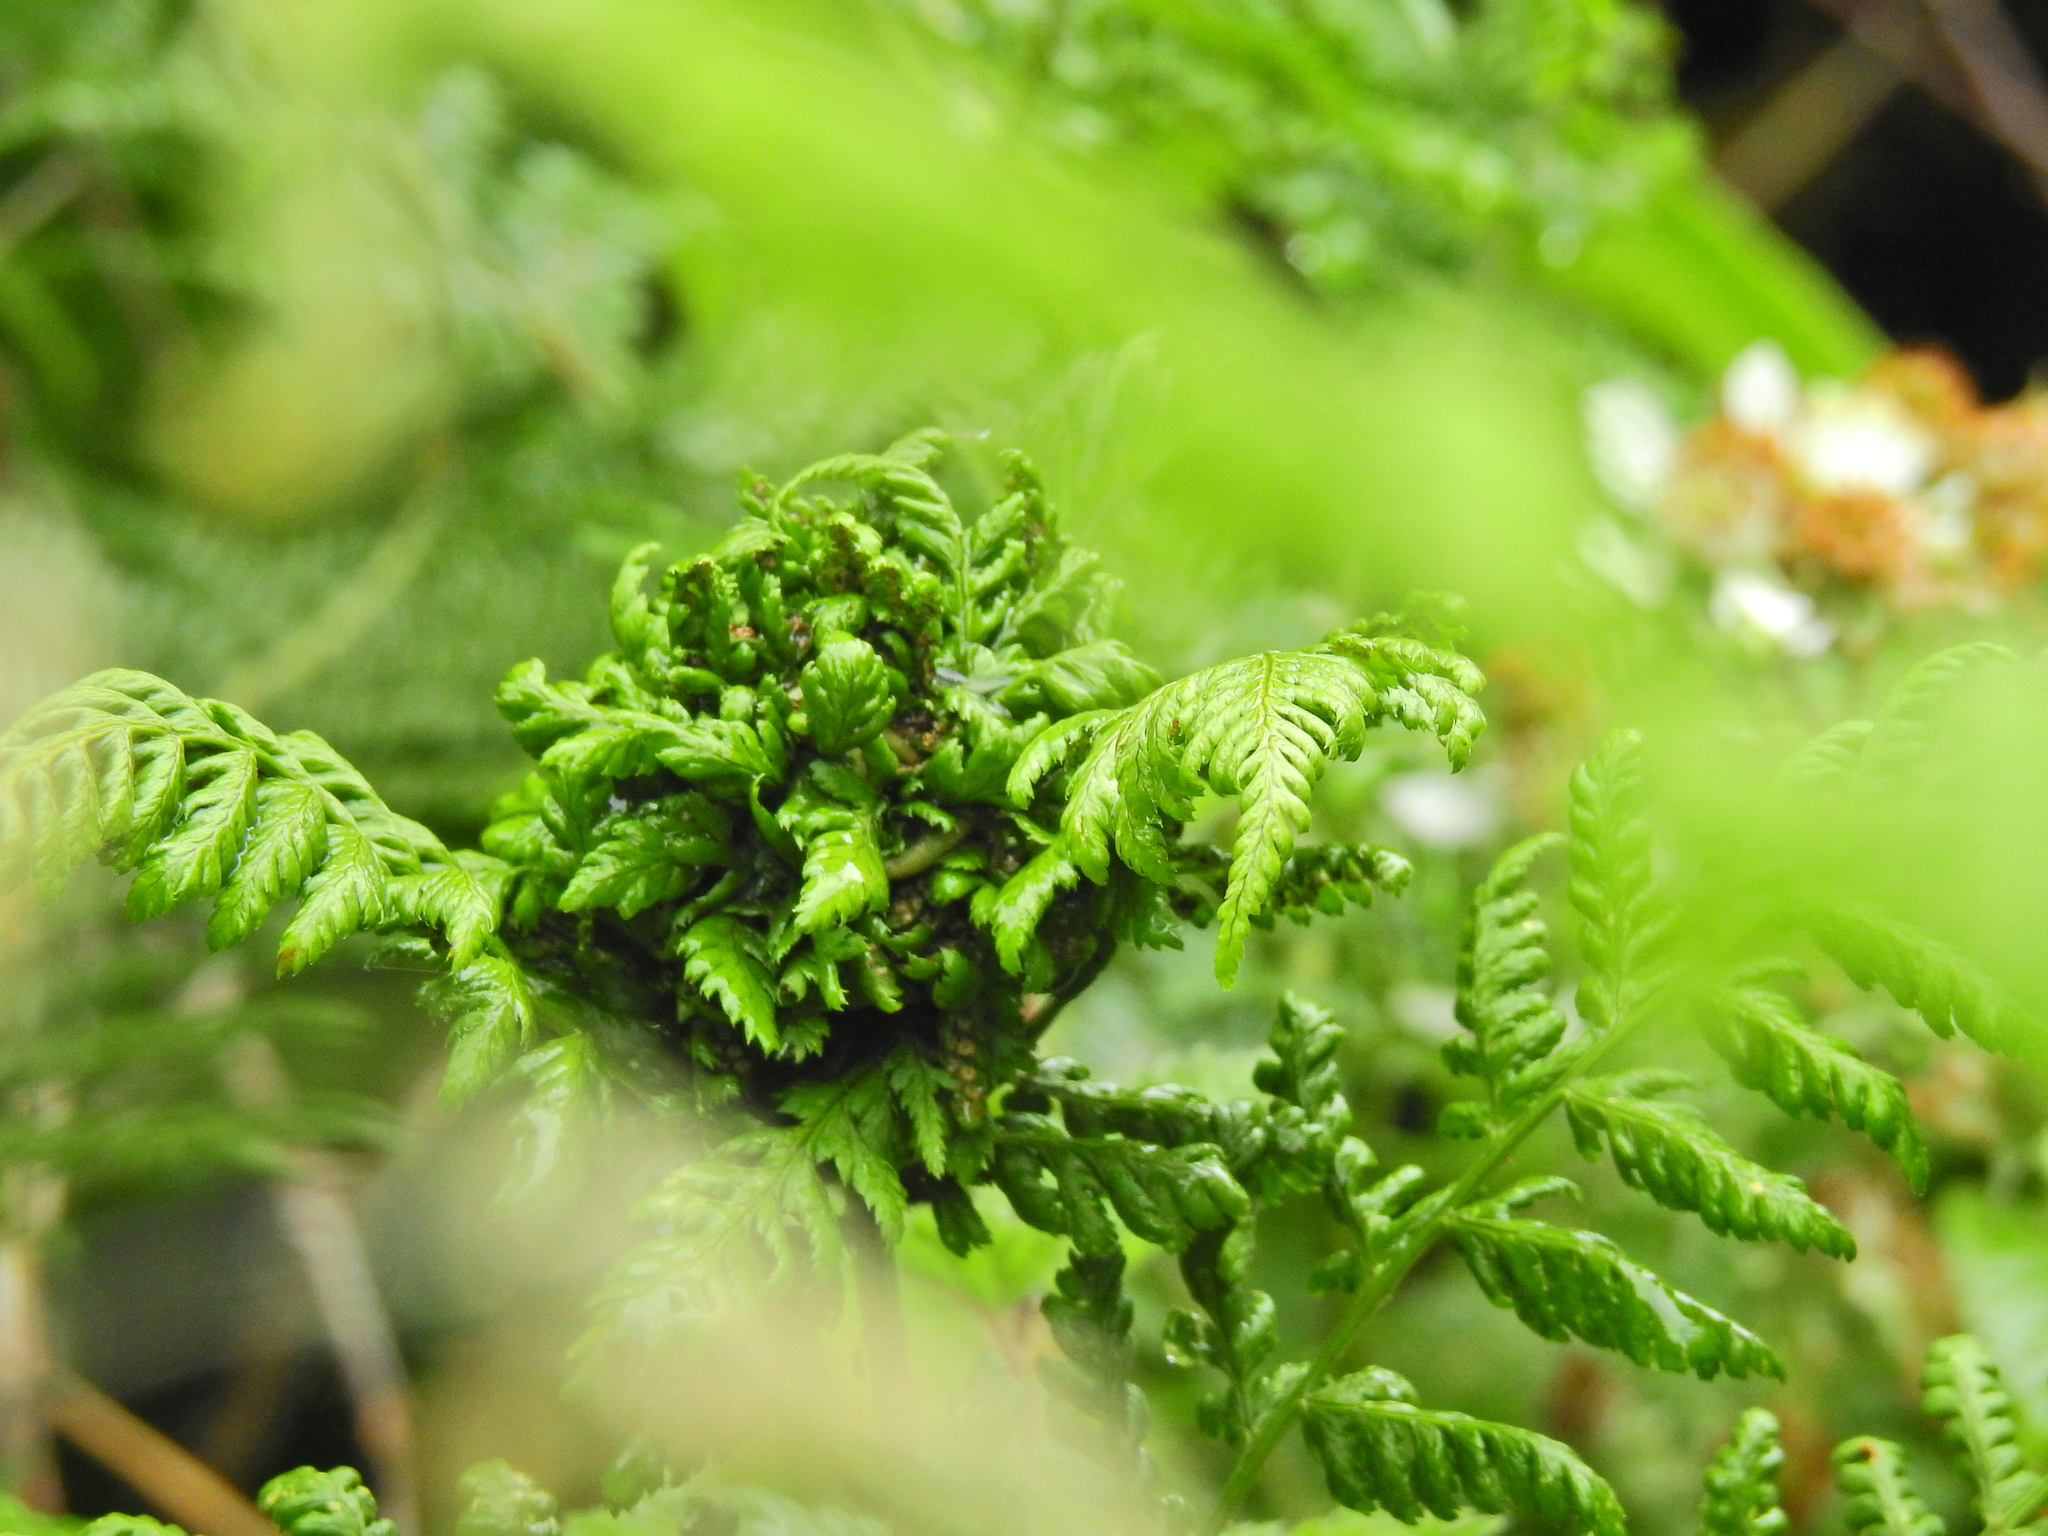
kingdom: Animalia
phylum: Arthropoda
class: Insecta
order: Diptera
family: Anthomyiidae
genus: Chirosia
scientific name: Chirosia betuleti
